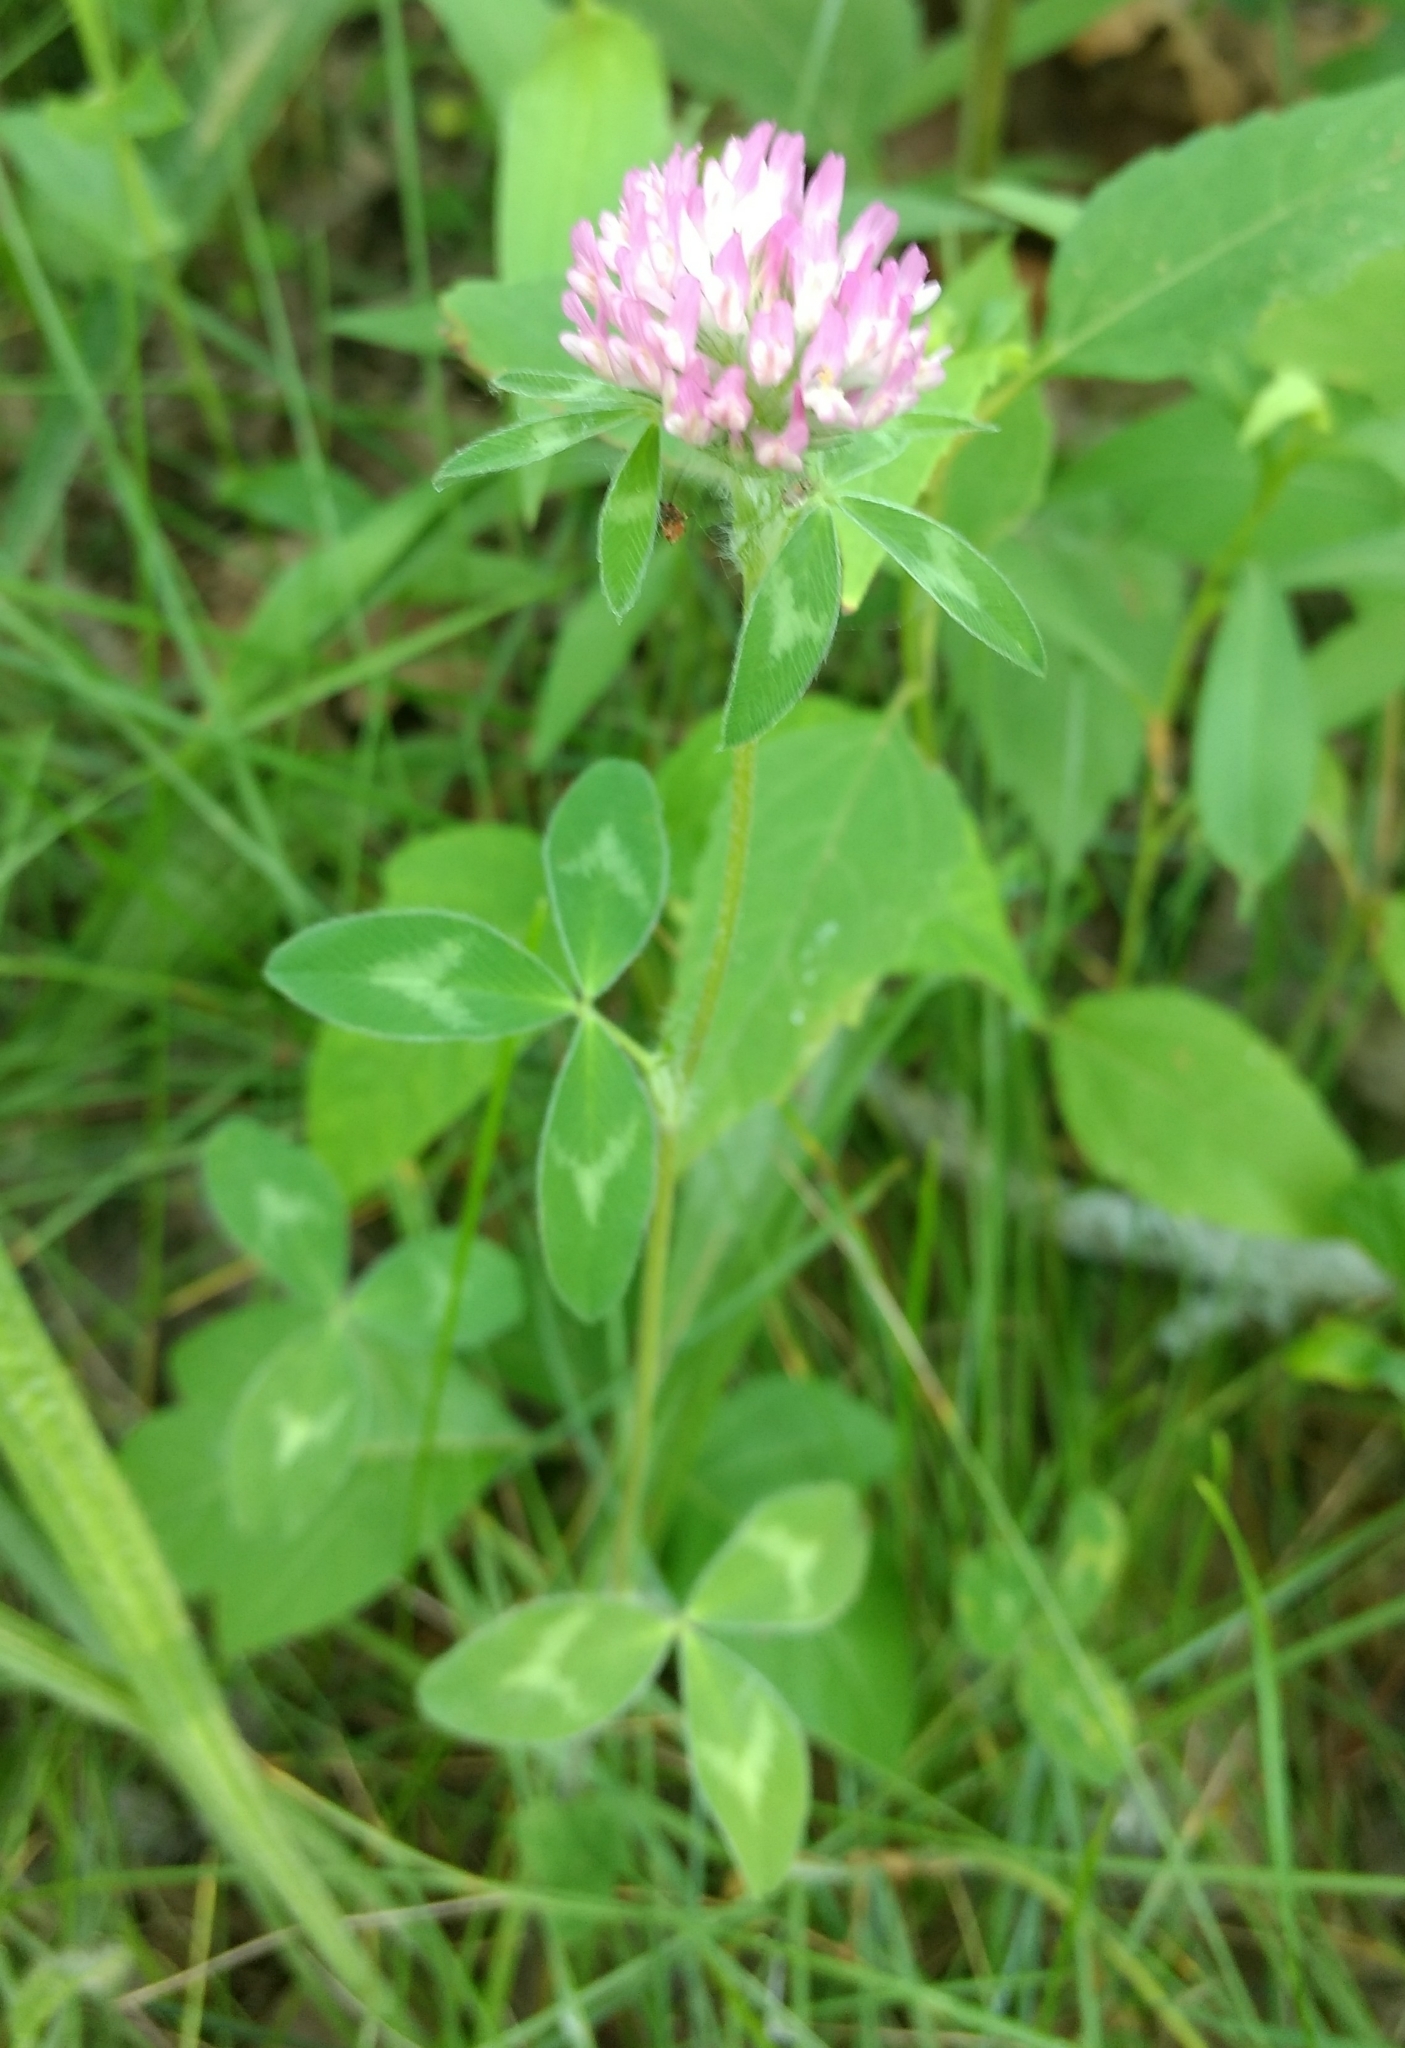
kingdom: Plantae
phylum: Tracheophyta
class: Magnoliopsida
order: Fabales
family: Fabaceae
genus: Trifolium
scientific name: Trifolium pratense
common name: Red clover
